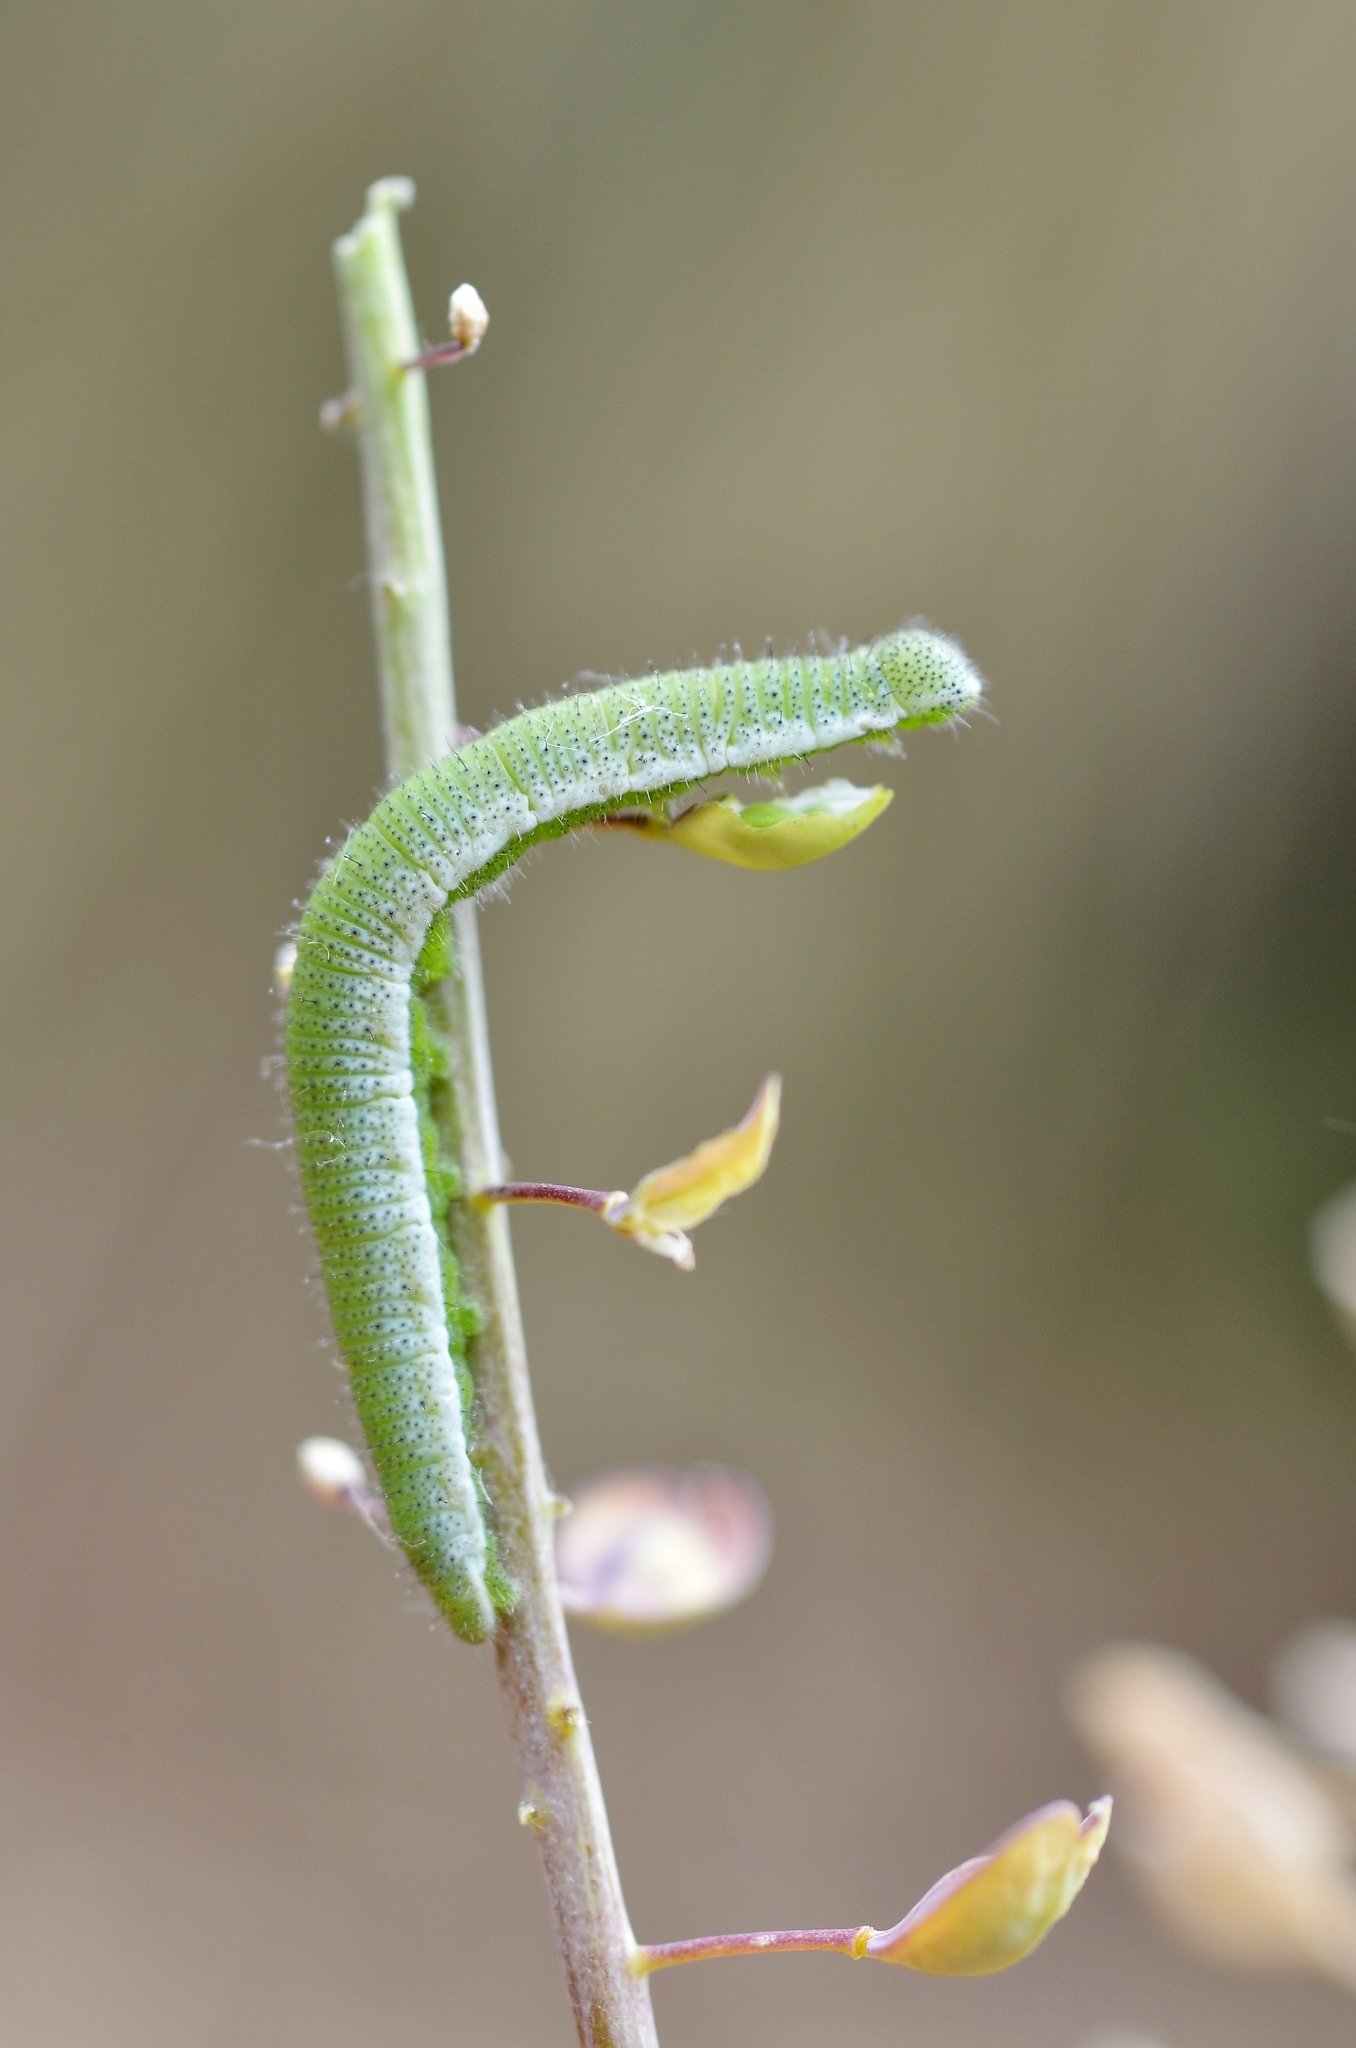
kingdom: Animalia
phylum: Arthropoda
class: Insecta
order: Lepidoptera
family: Pieridae
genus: Anthocharis
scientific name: Anthocharis cardamines
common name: Orange-tip
